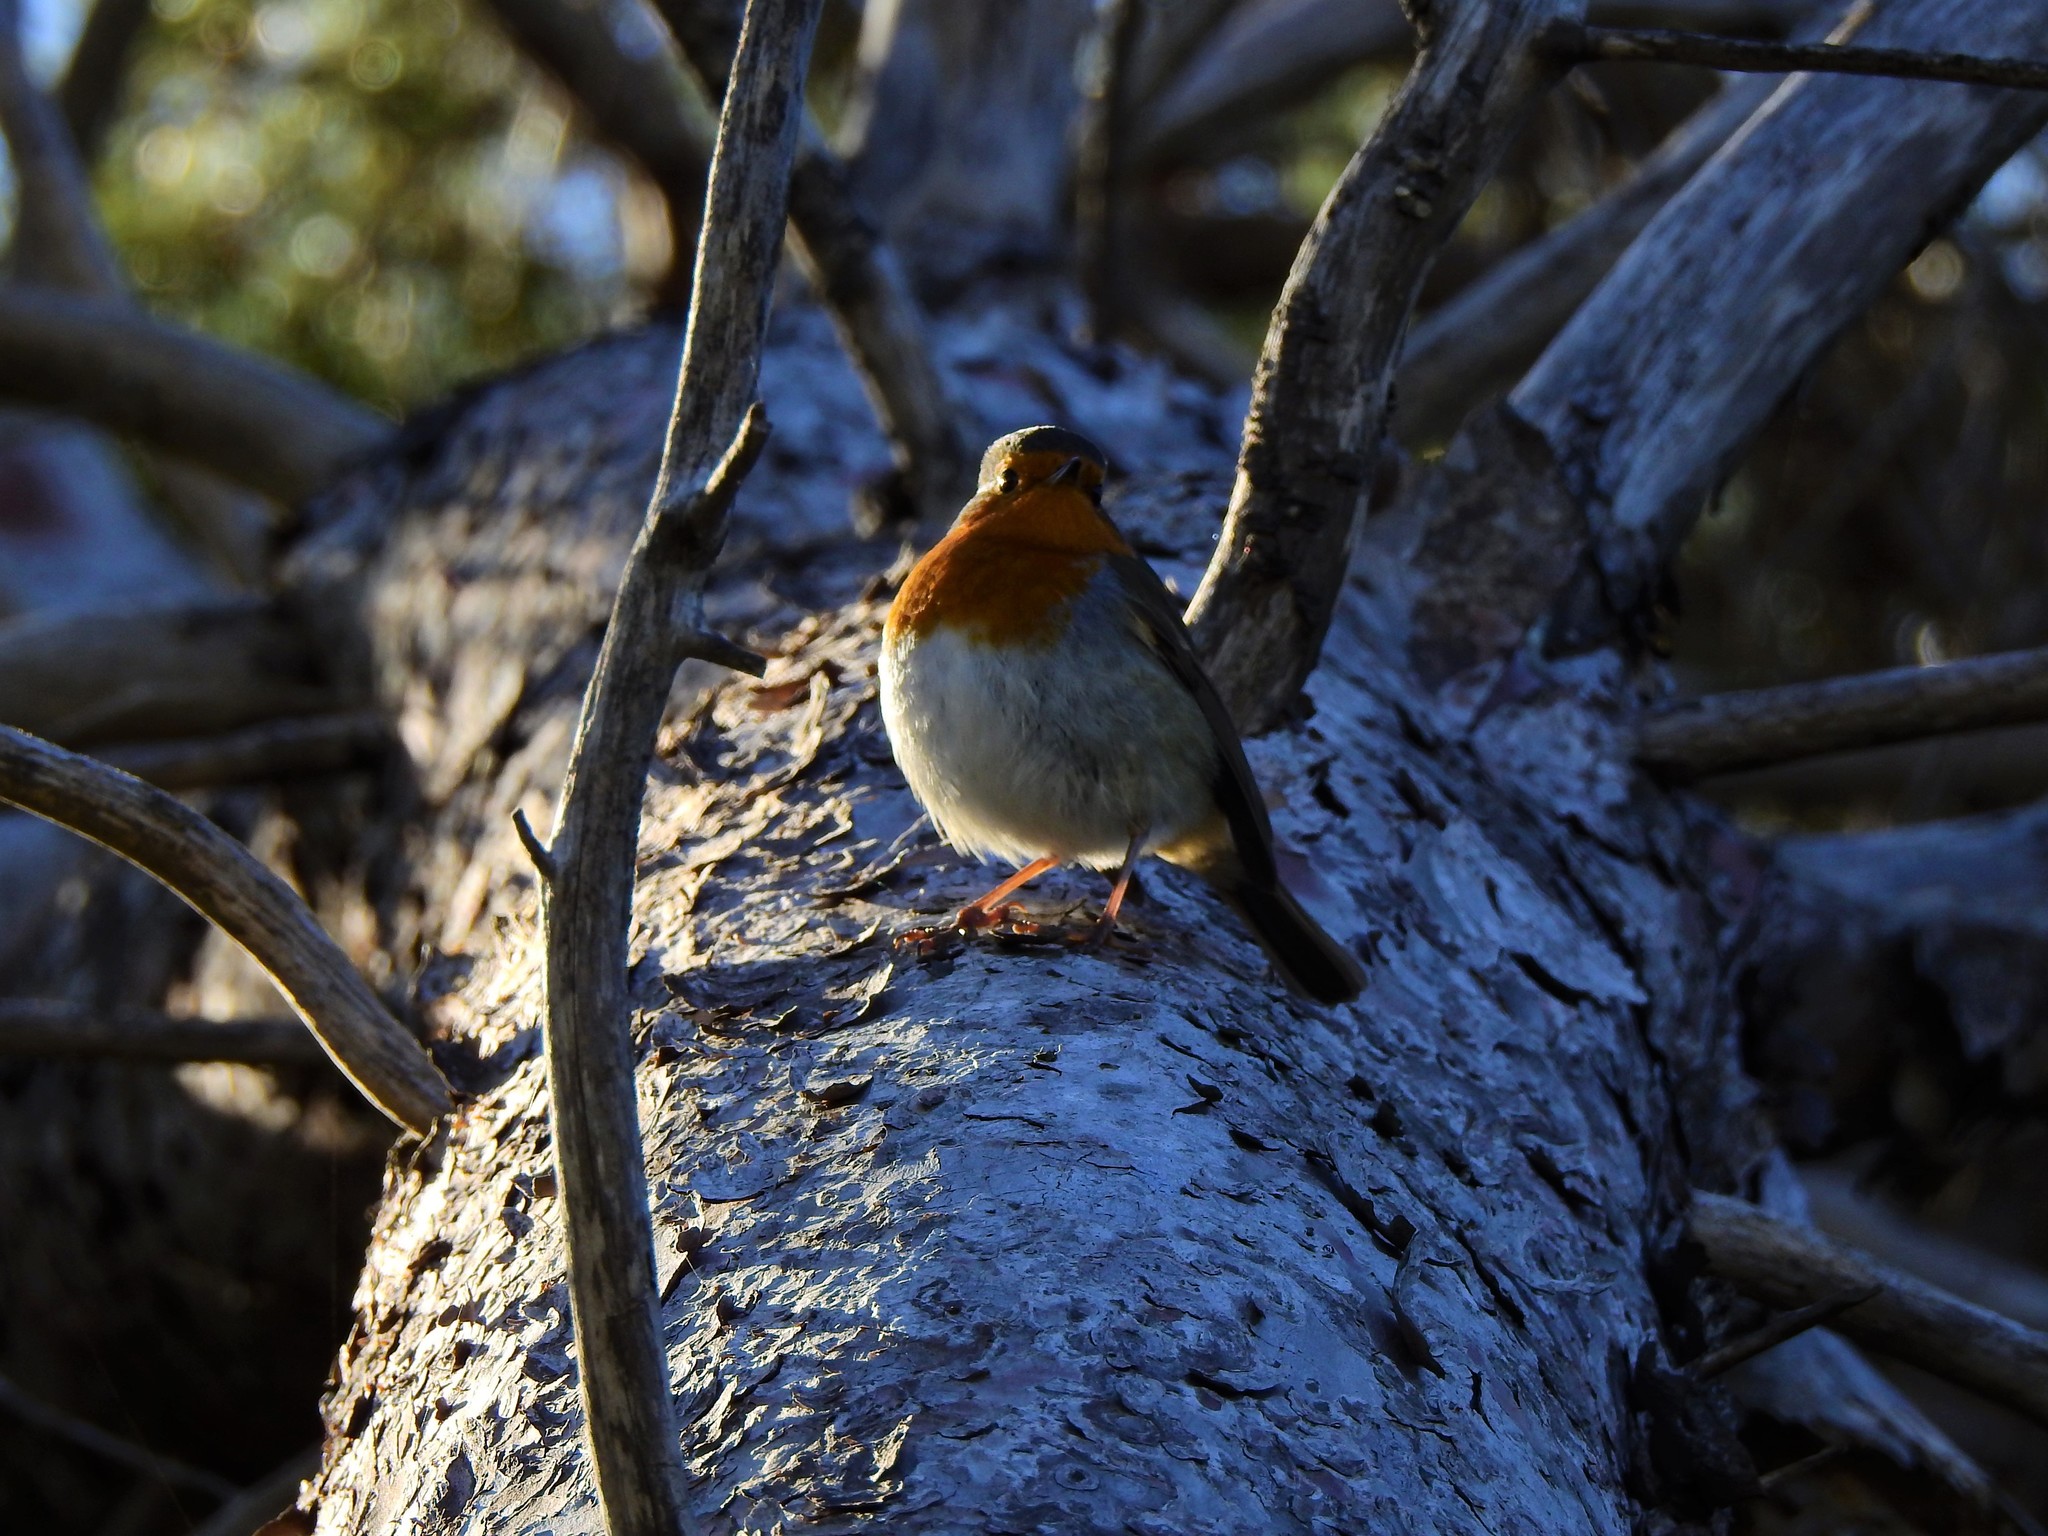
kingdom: Animalia
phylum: Chordata
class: Aves
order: Passeriformes
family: Muscicapidae
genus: Erithacus
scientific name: Erithacus rubecula
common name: European robin
